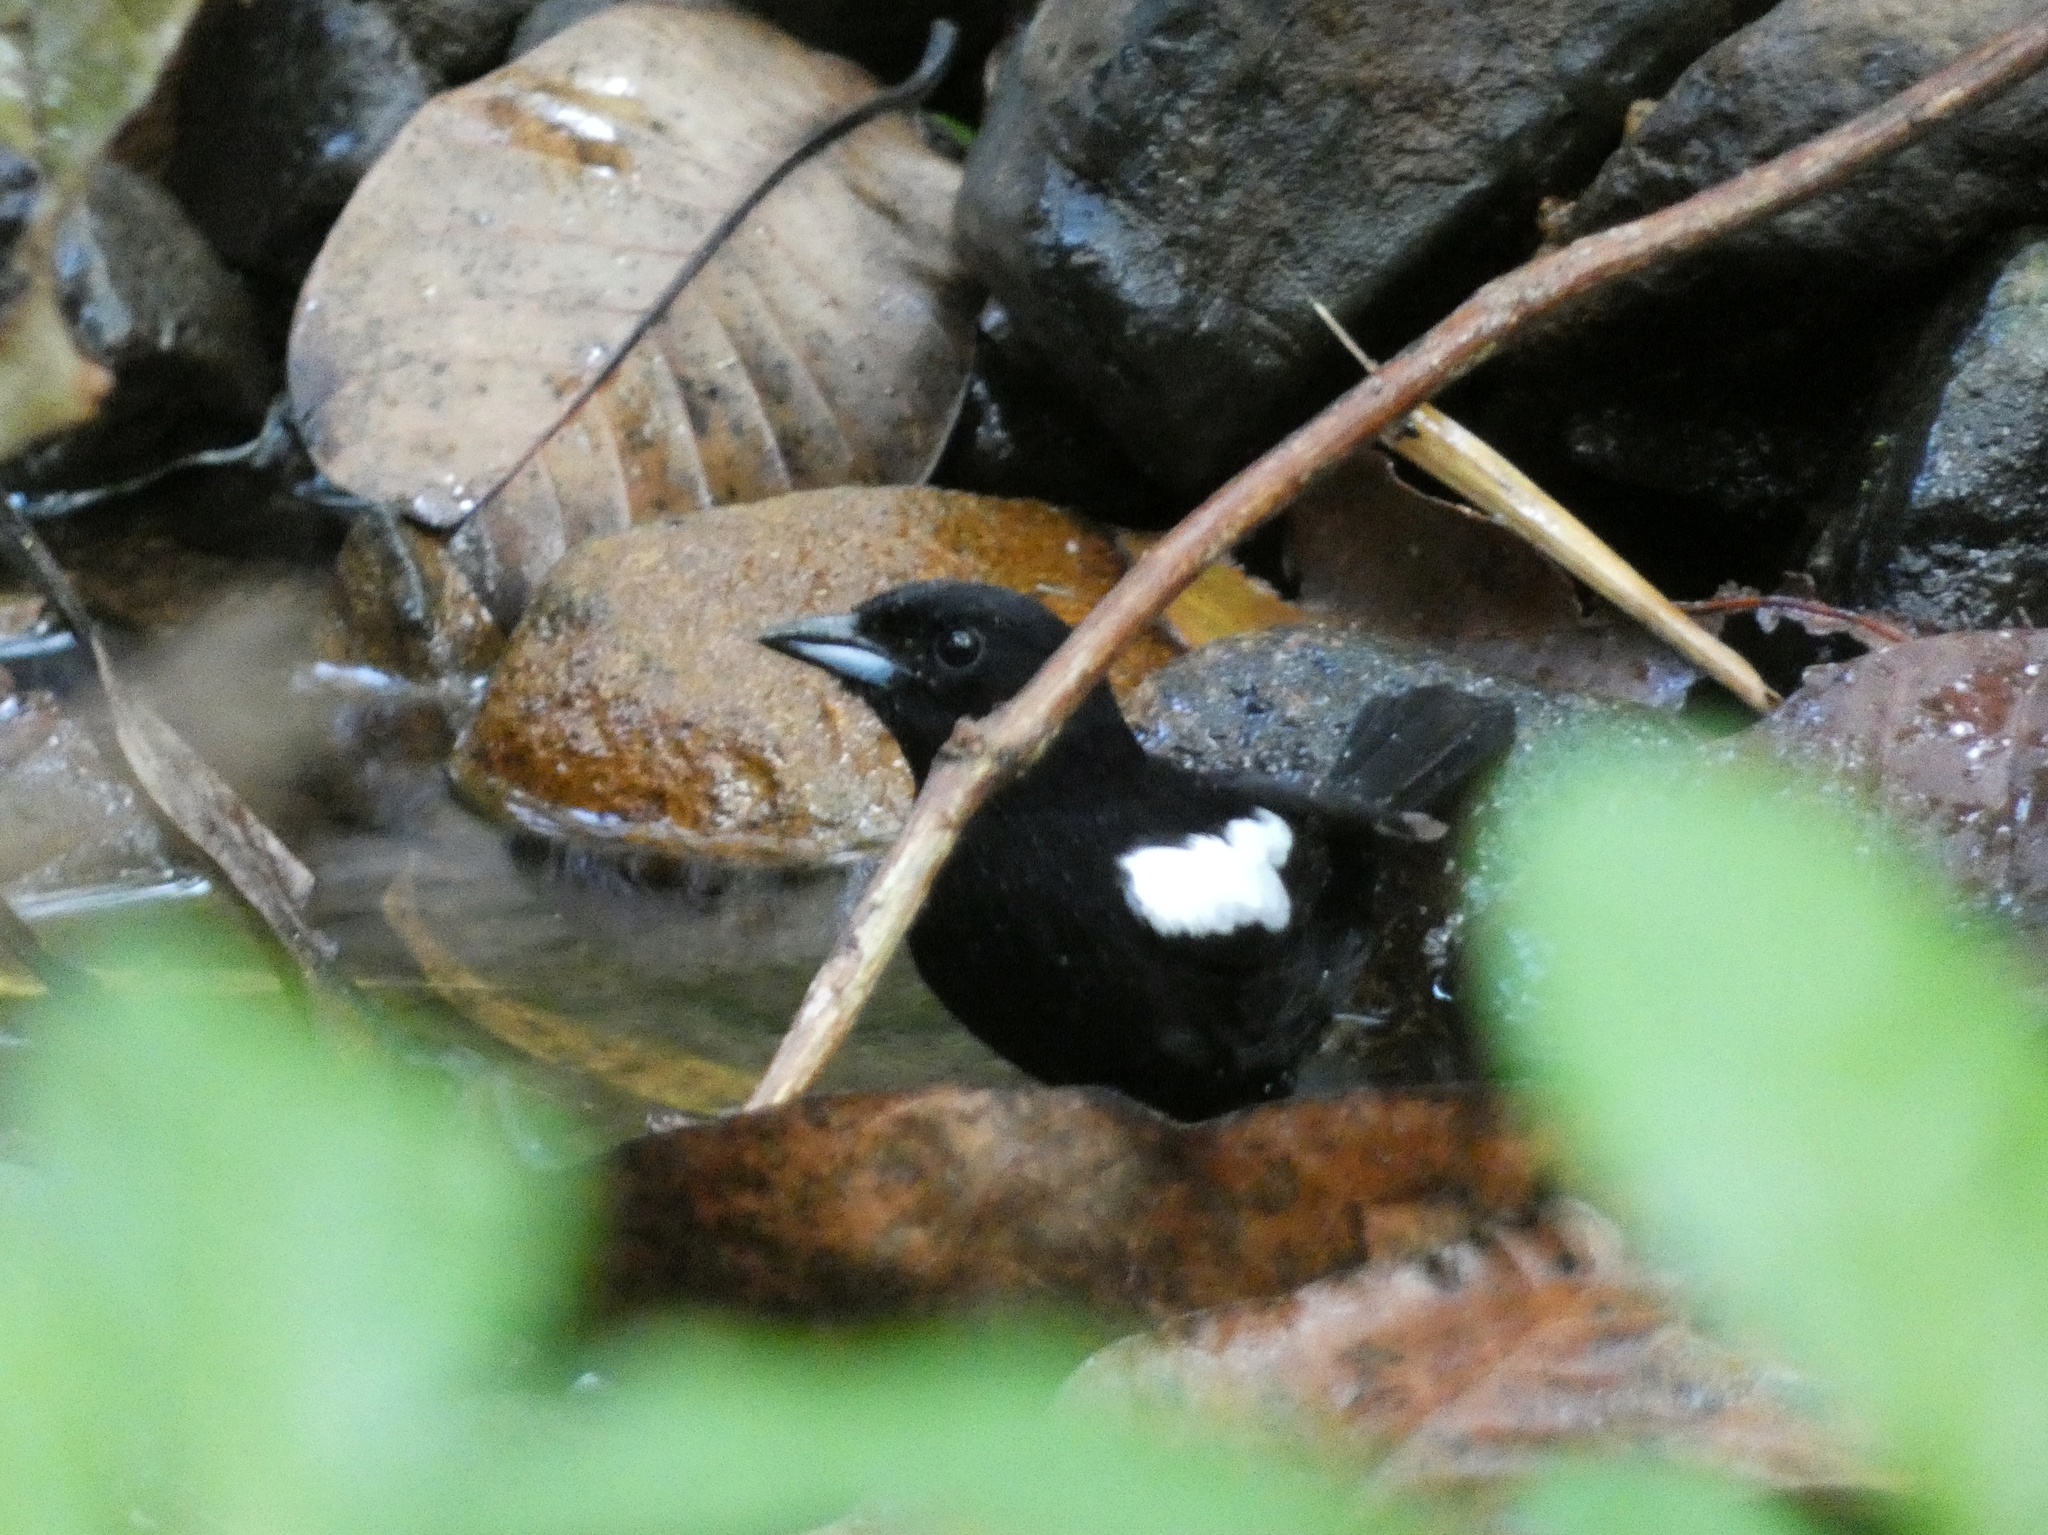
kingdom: Animalia
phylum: Chordata
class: Aves
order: Passeriformes
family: Thraupidae
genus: Loriotus
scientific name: Loriotus luctuosus
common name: White-shouldered tanager
